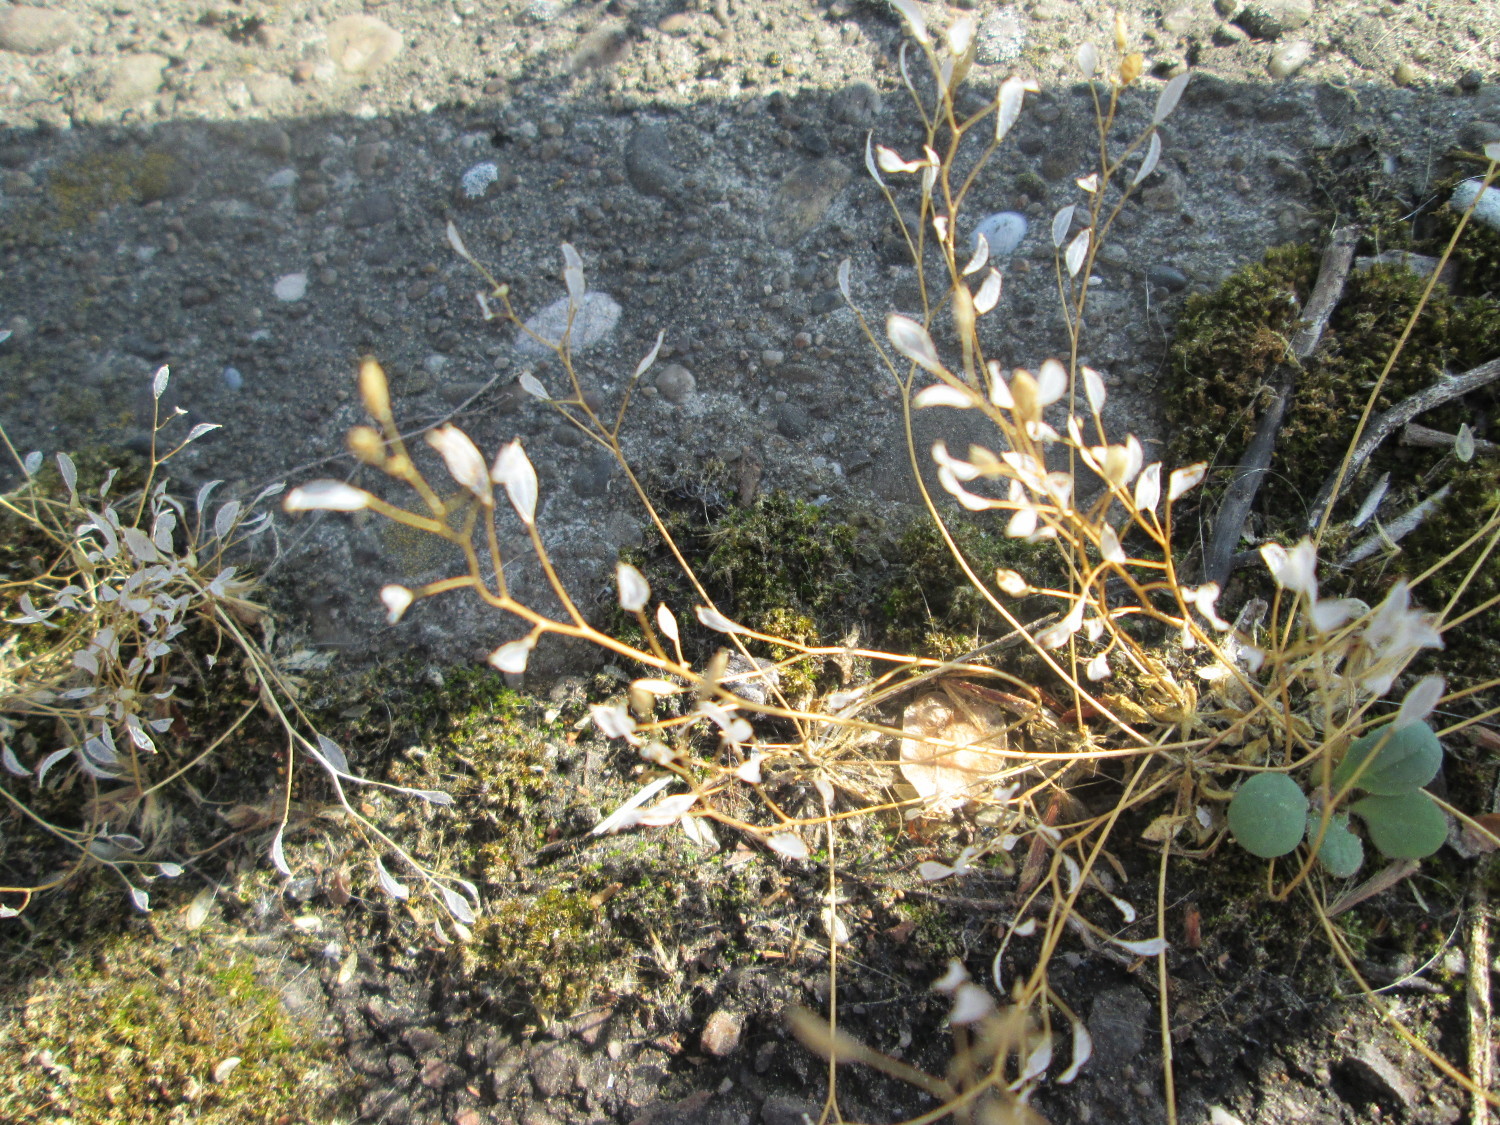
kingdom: Plantae
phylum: Tracheophyta
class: Magnoliopsida
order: Brassicales
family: Brassicaceae
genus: Draba
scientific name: Draba verna
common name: Spring draba
